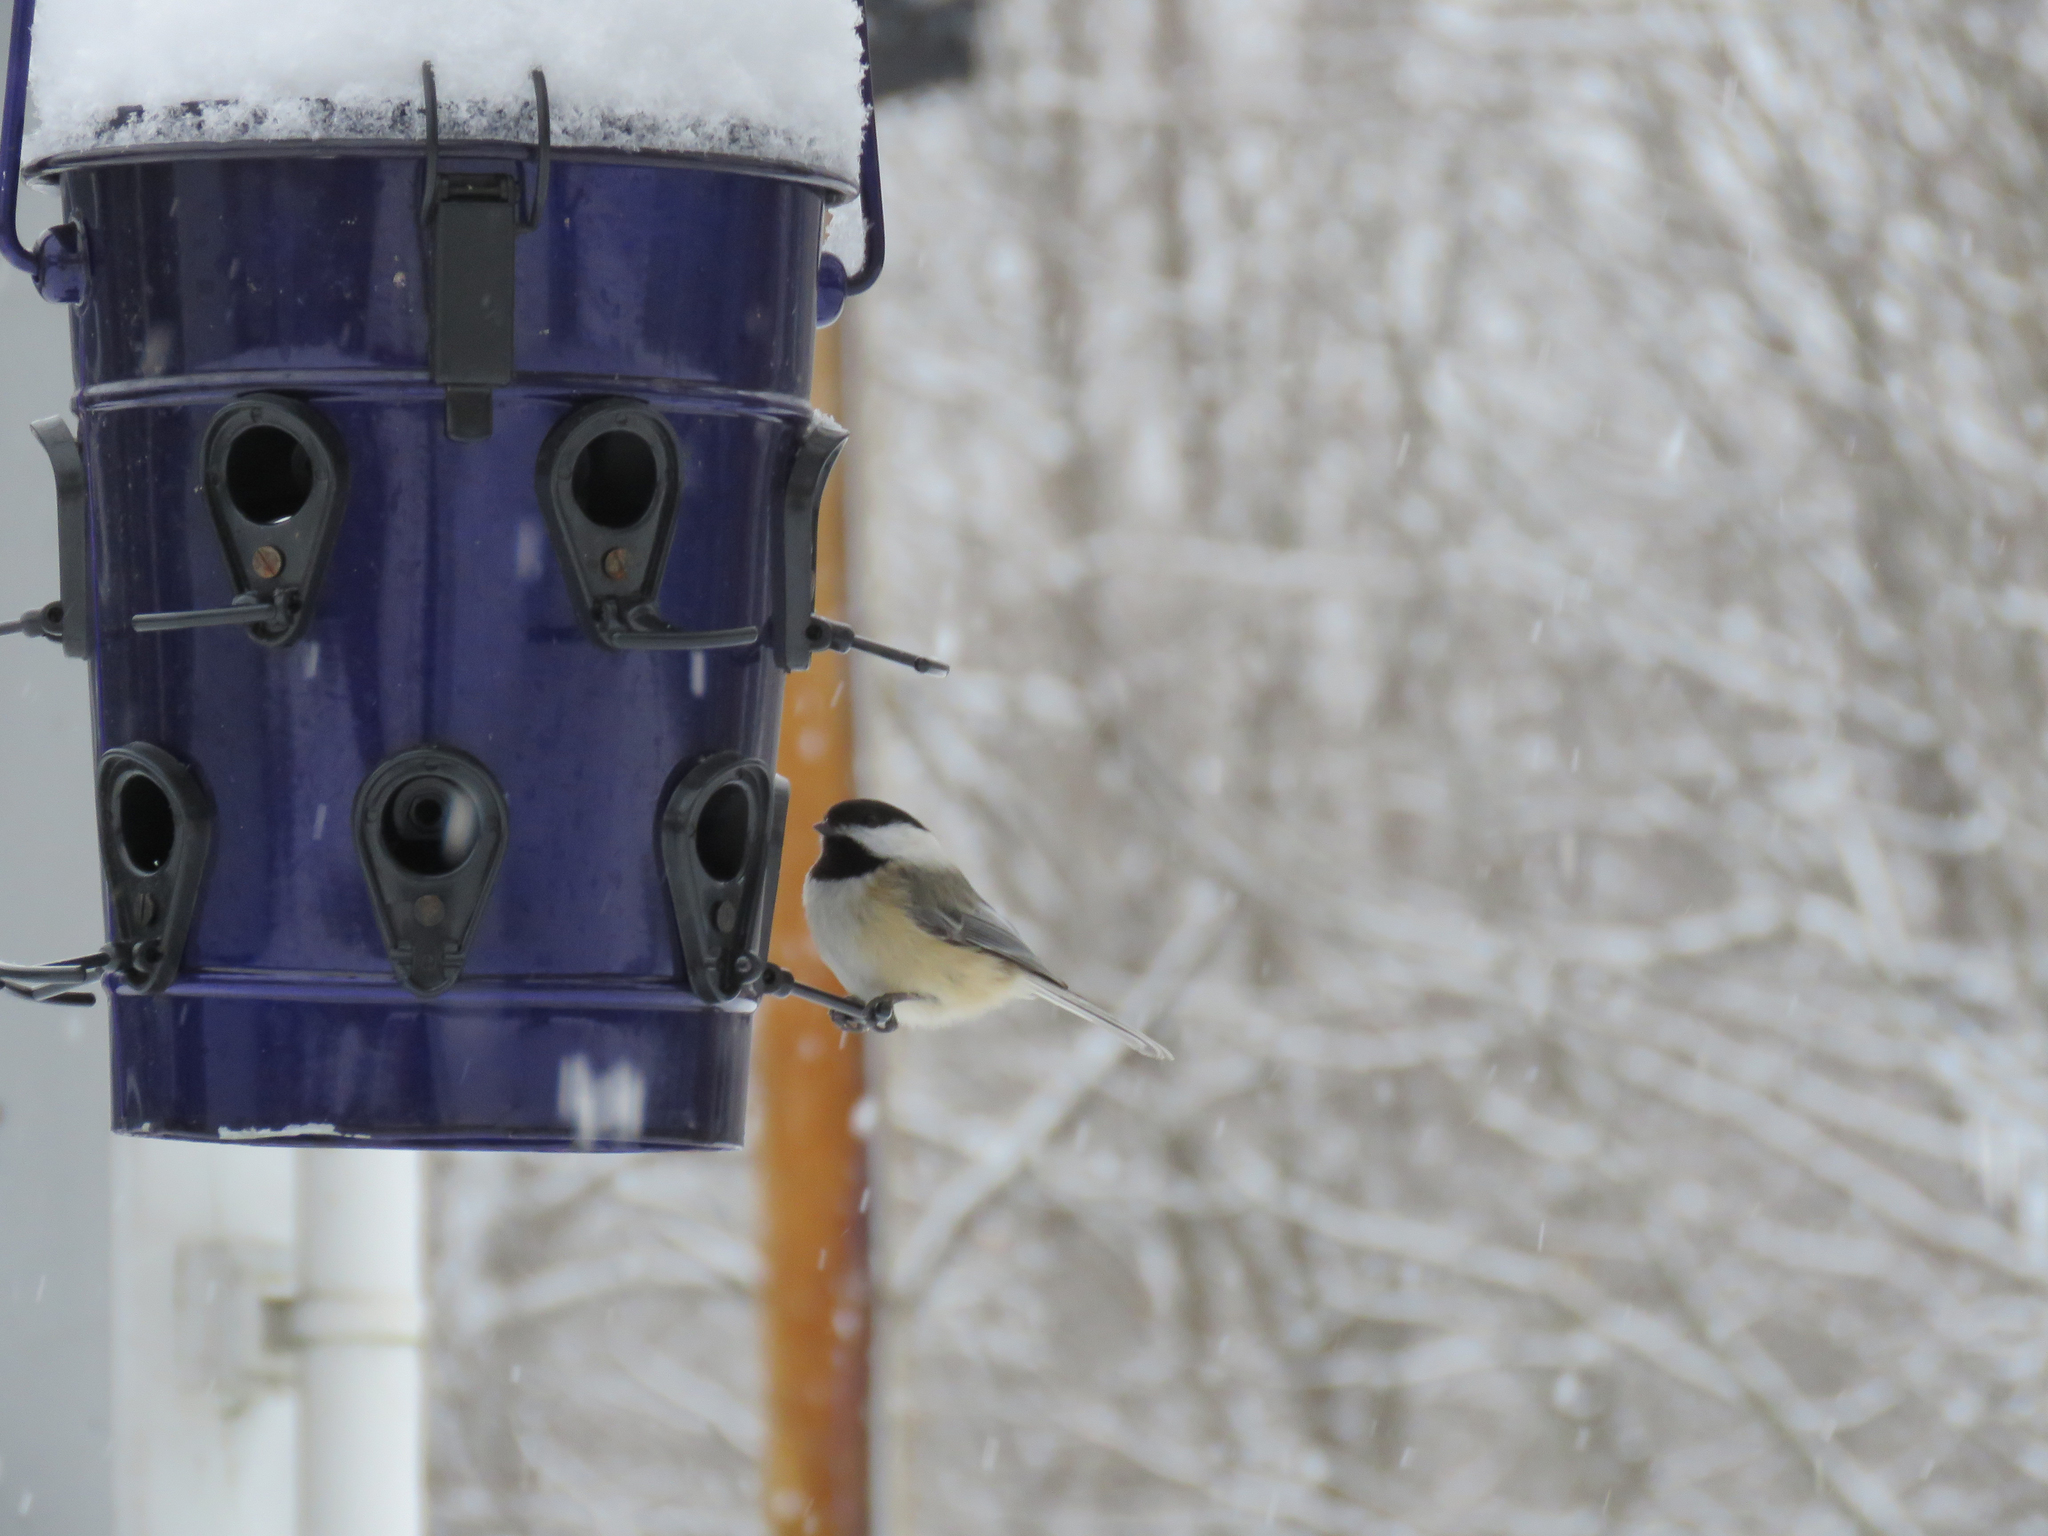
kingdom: Animalia
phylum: Chordata
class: Aves
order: Passeriformes
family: Paridae
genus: Poecile
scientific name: Poecile atricapillus
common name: Black-capped chickadee
